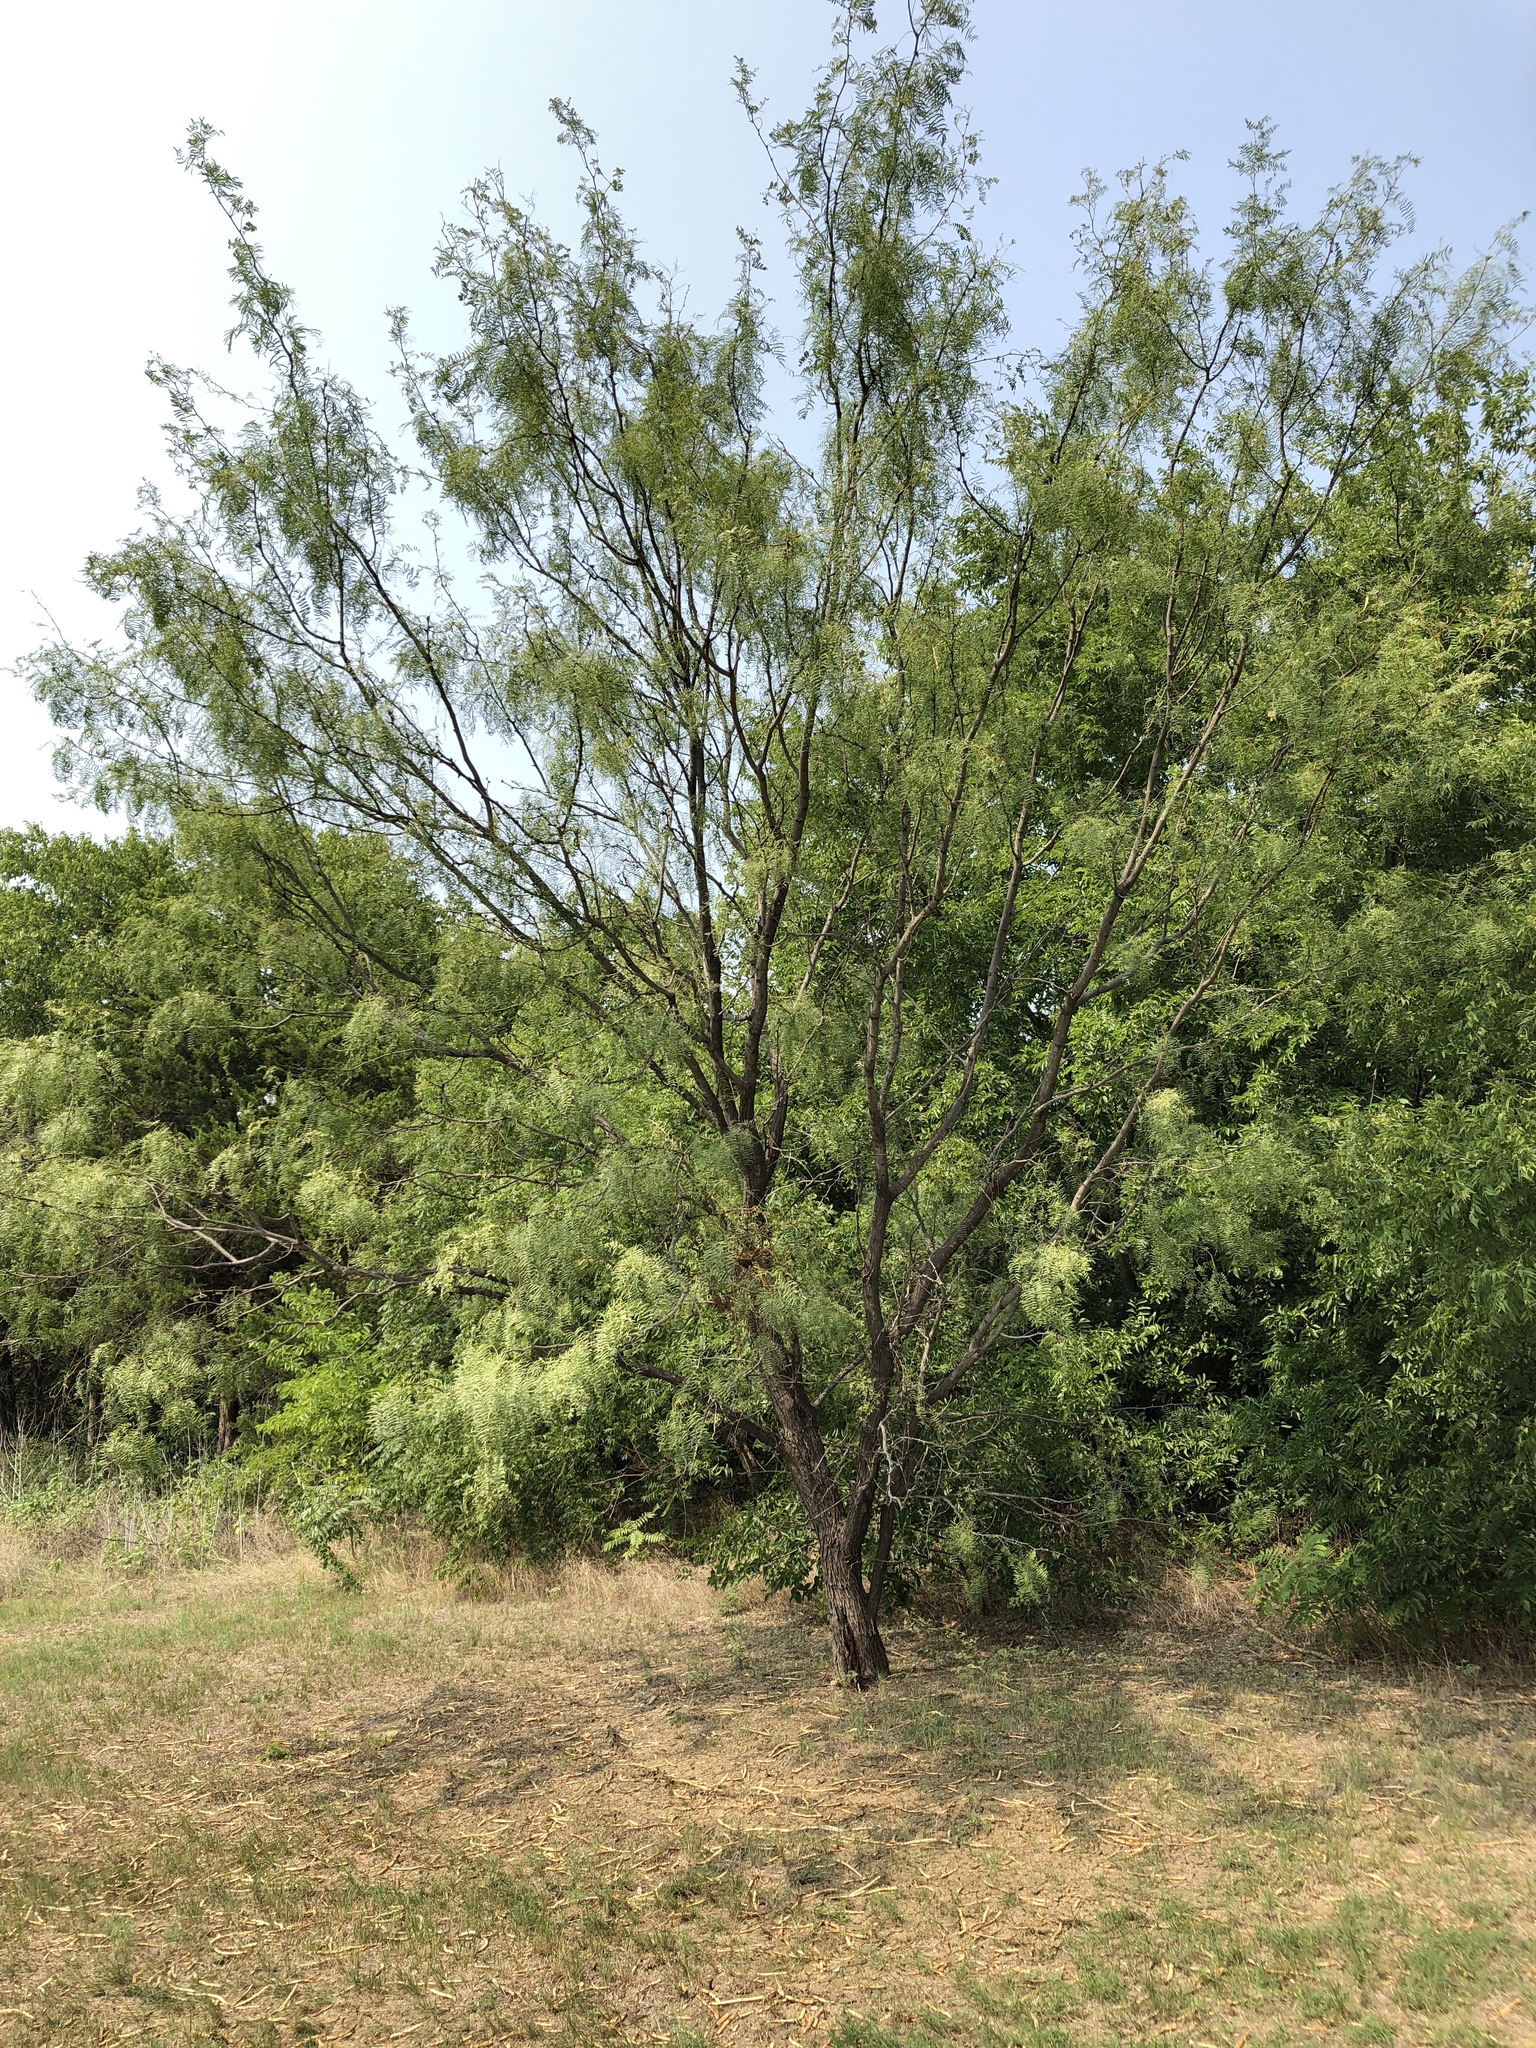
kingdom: Plantae
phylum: Tracheophyta
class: Magnoliopsida
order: Fabales
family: Fabaceae
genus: Prosopis
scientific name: Prosopis glandulosa
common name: Honey mesquite
